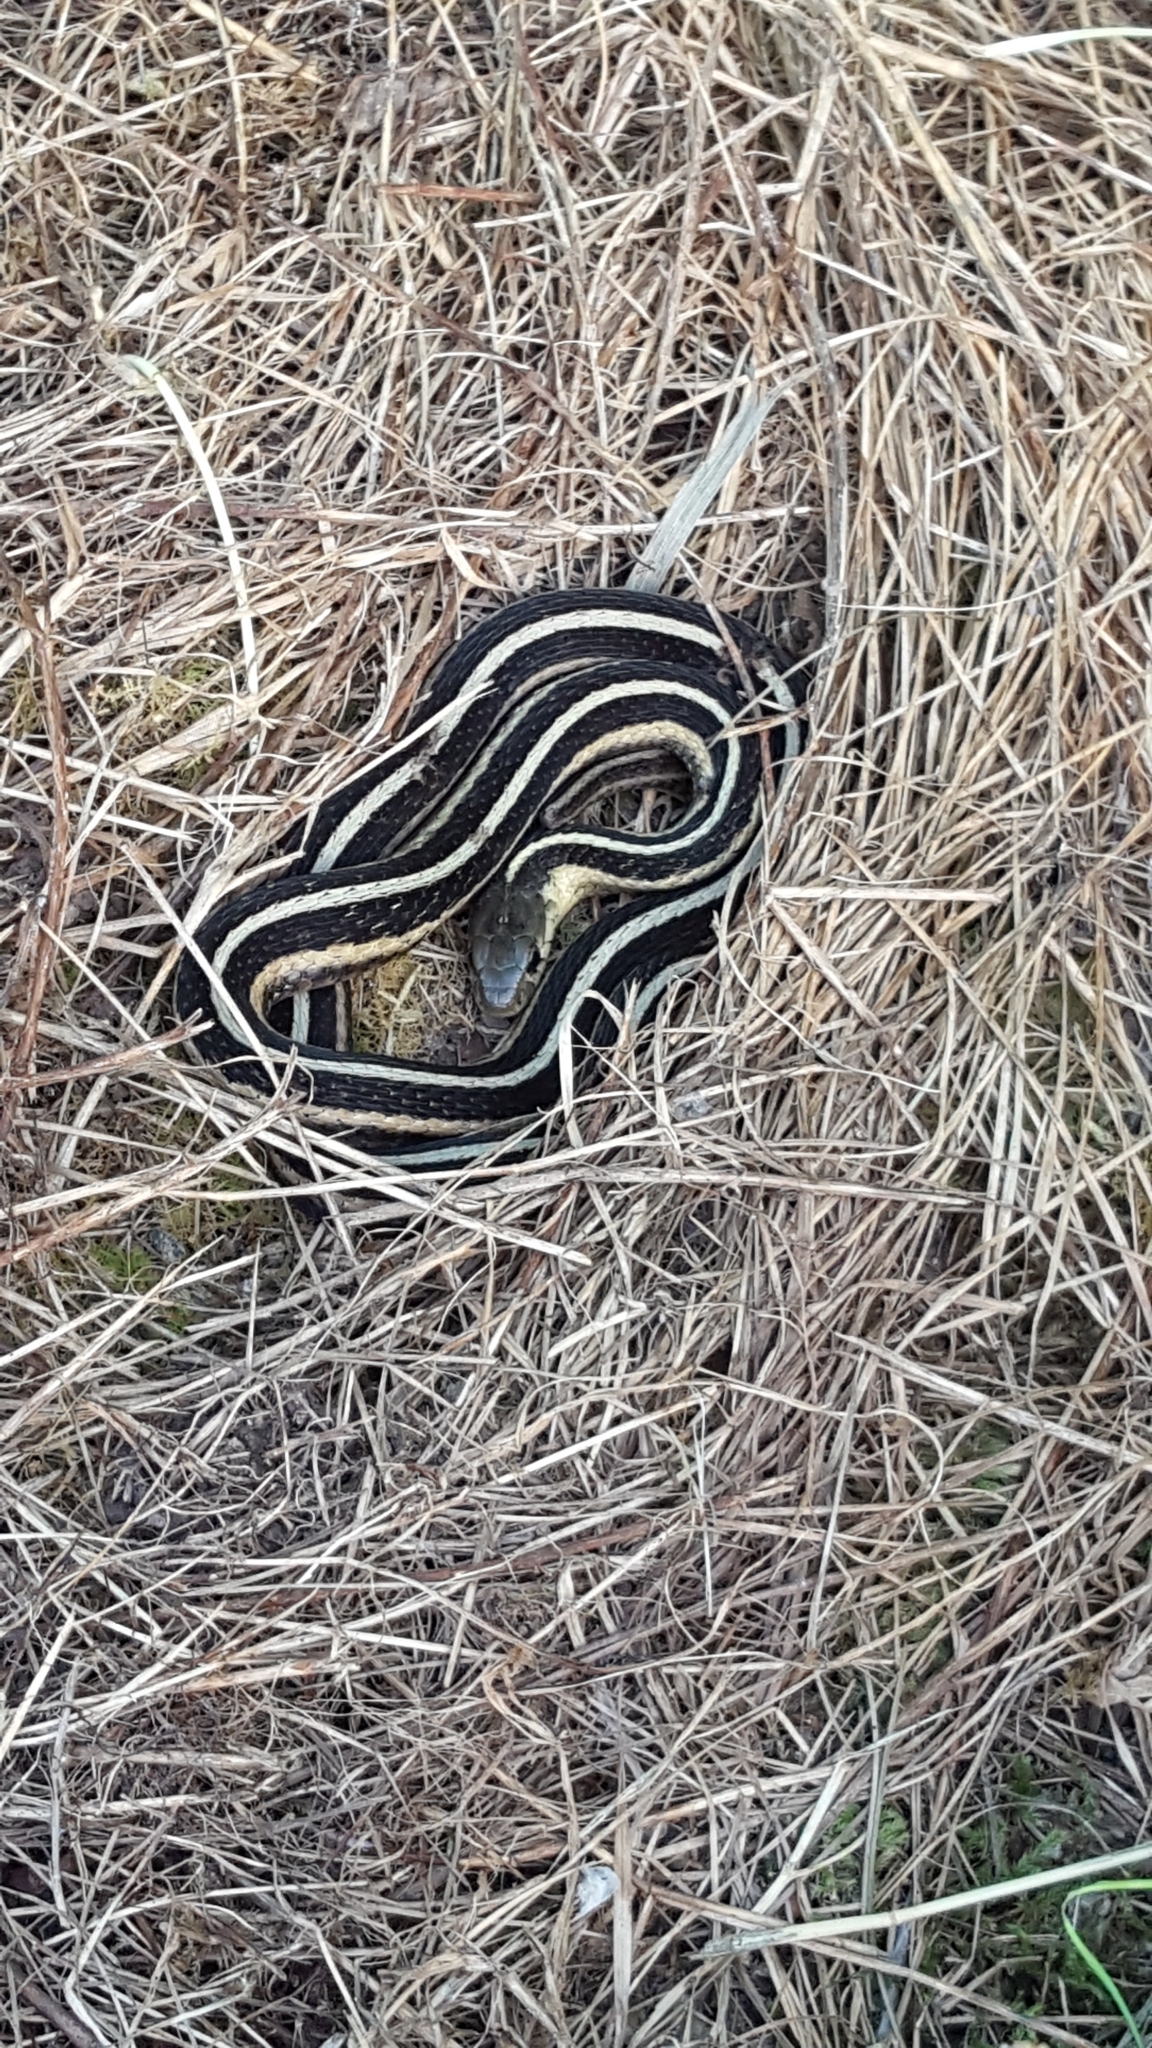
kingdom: Animalia
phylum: Chordata
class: Squamata
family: Colubridae
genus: Thamnophis
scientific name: Thamnophis sirtalis
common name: Common garter snake
